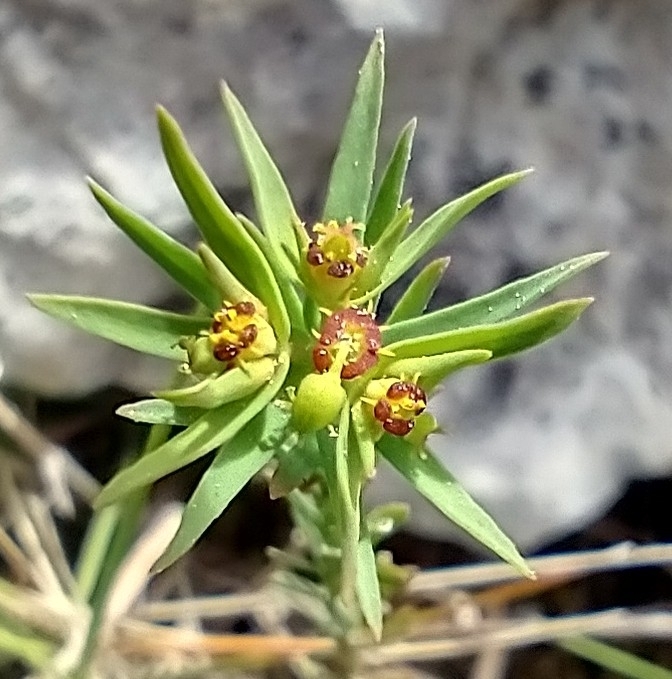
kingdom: Plantae
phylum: Tracheophyta
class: Magnoliopsida
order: Malpighiales
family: Euphorbiaceae
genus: Euphorbia
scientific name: Euphorbia exigua
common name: Dwarf spurge
